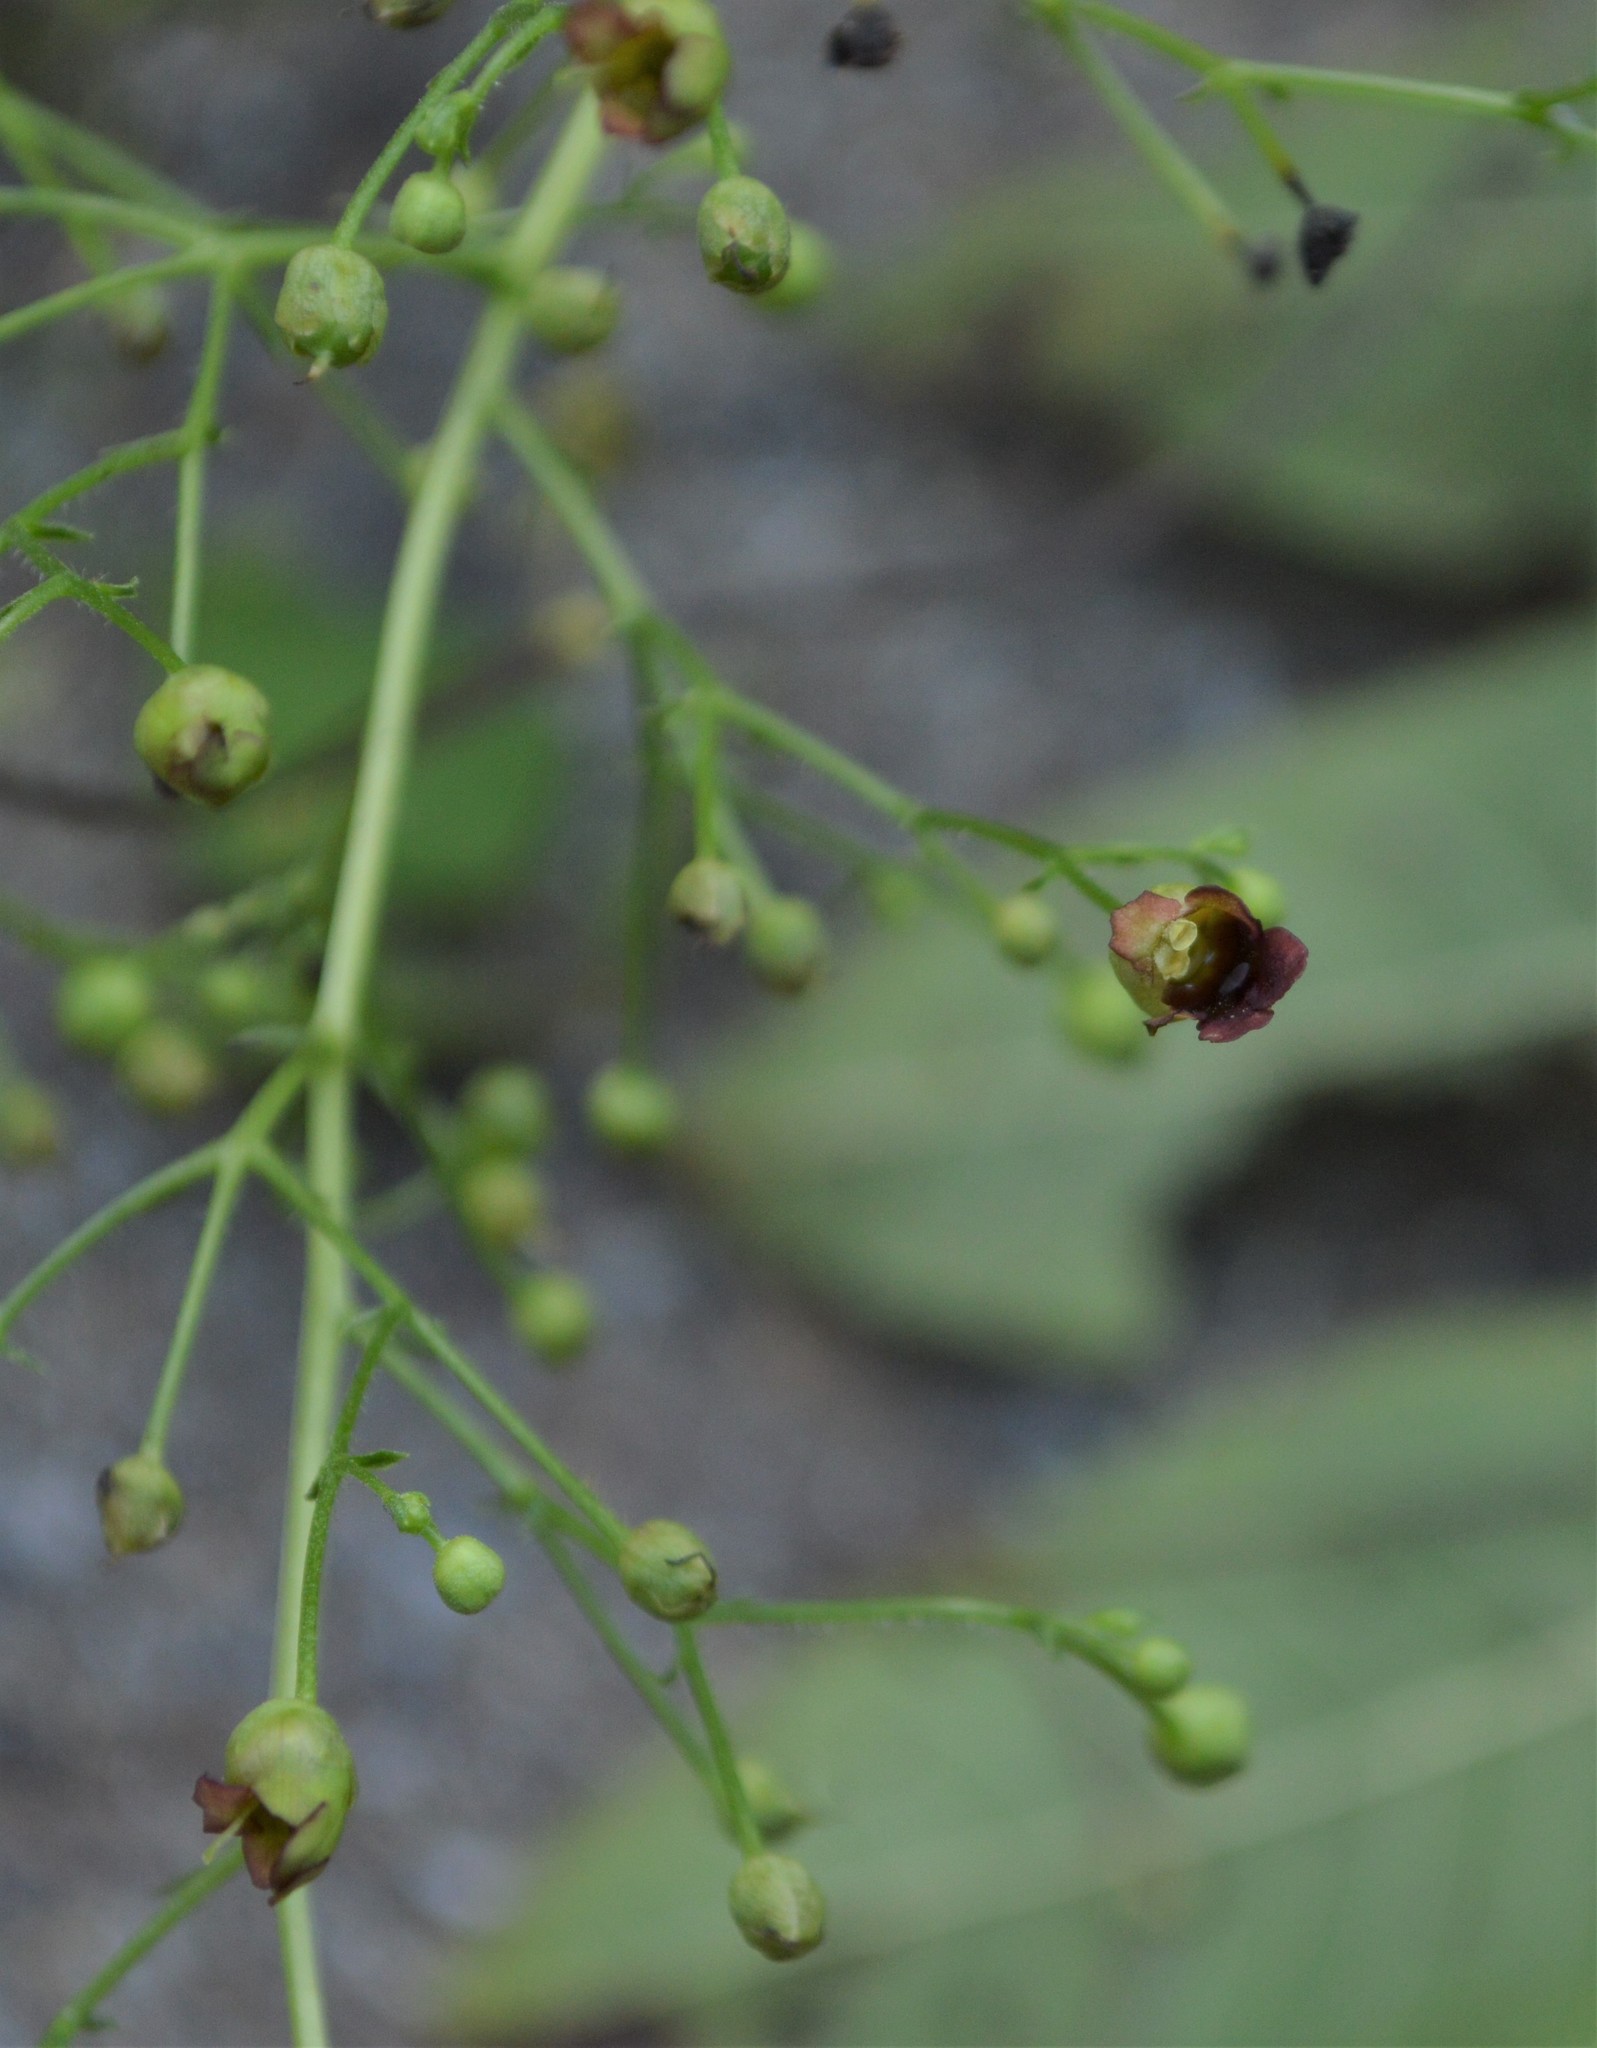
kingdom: Plantae
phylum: Tracheophyta
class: Magnoliopsida
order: Lamiales
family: Scrophulariaceae
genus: Scrophularia
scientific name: Scrophularia marilandica
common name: Eastern figwort
